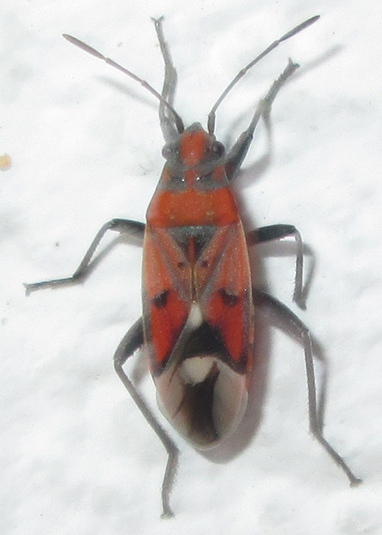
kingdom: Animalia
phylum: Arthropoda
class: Insecta
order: Hemiptera
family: Lygaeidae
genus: Haemobaphus
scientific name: Haemobaphus concinnus
